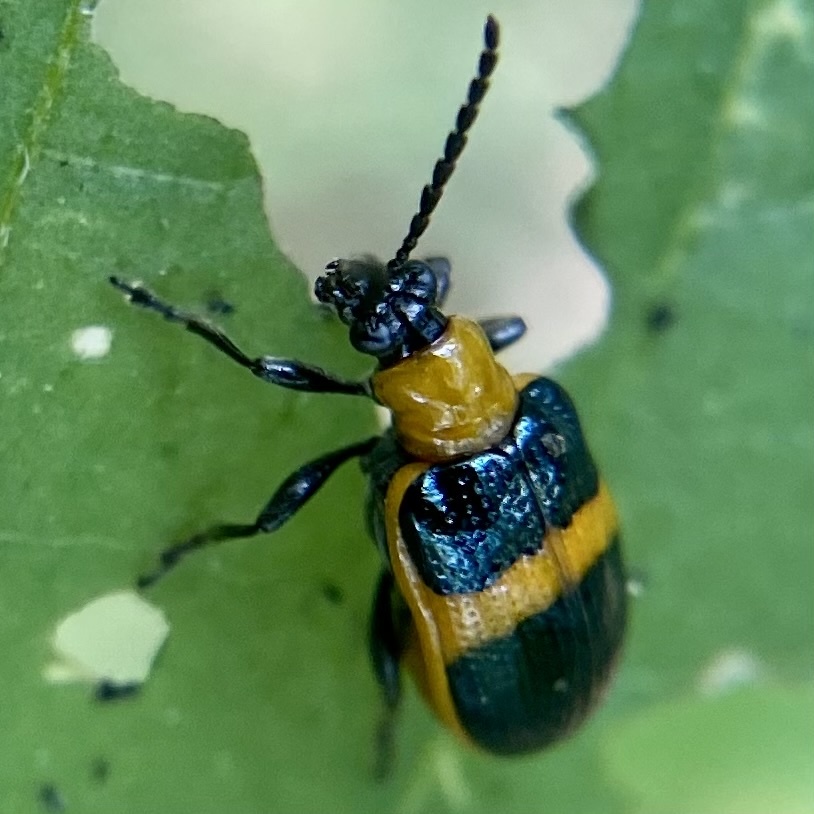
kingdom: Animalia
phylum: Arthropoda
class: Insecta
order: Coleoptera
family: Chrysomelidae
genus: Lema
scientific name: Lema solani
